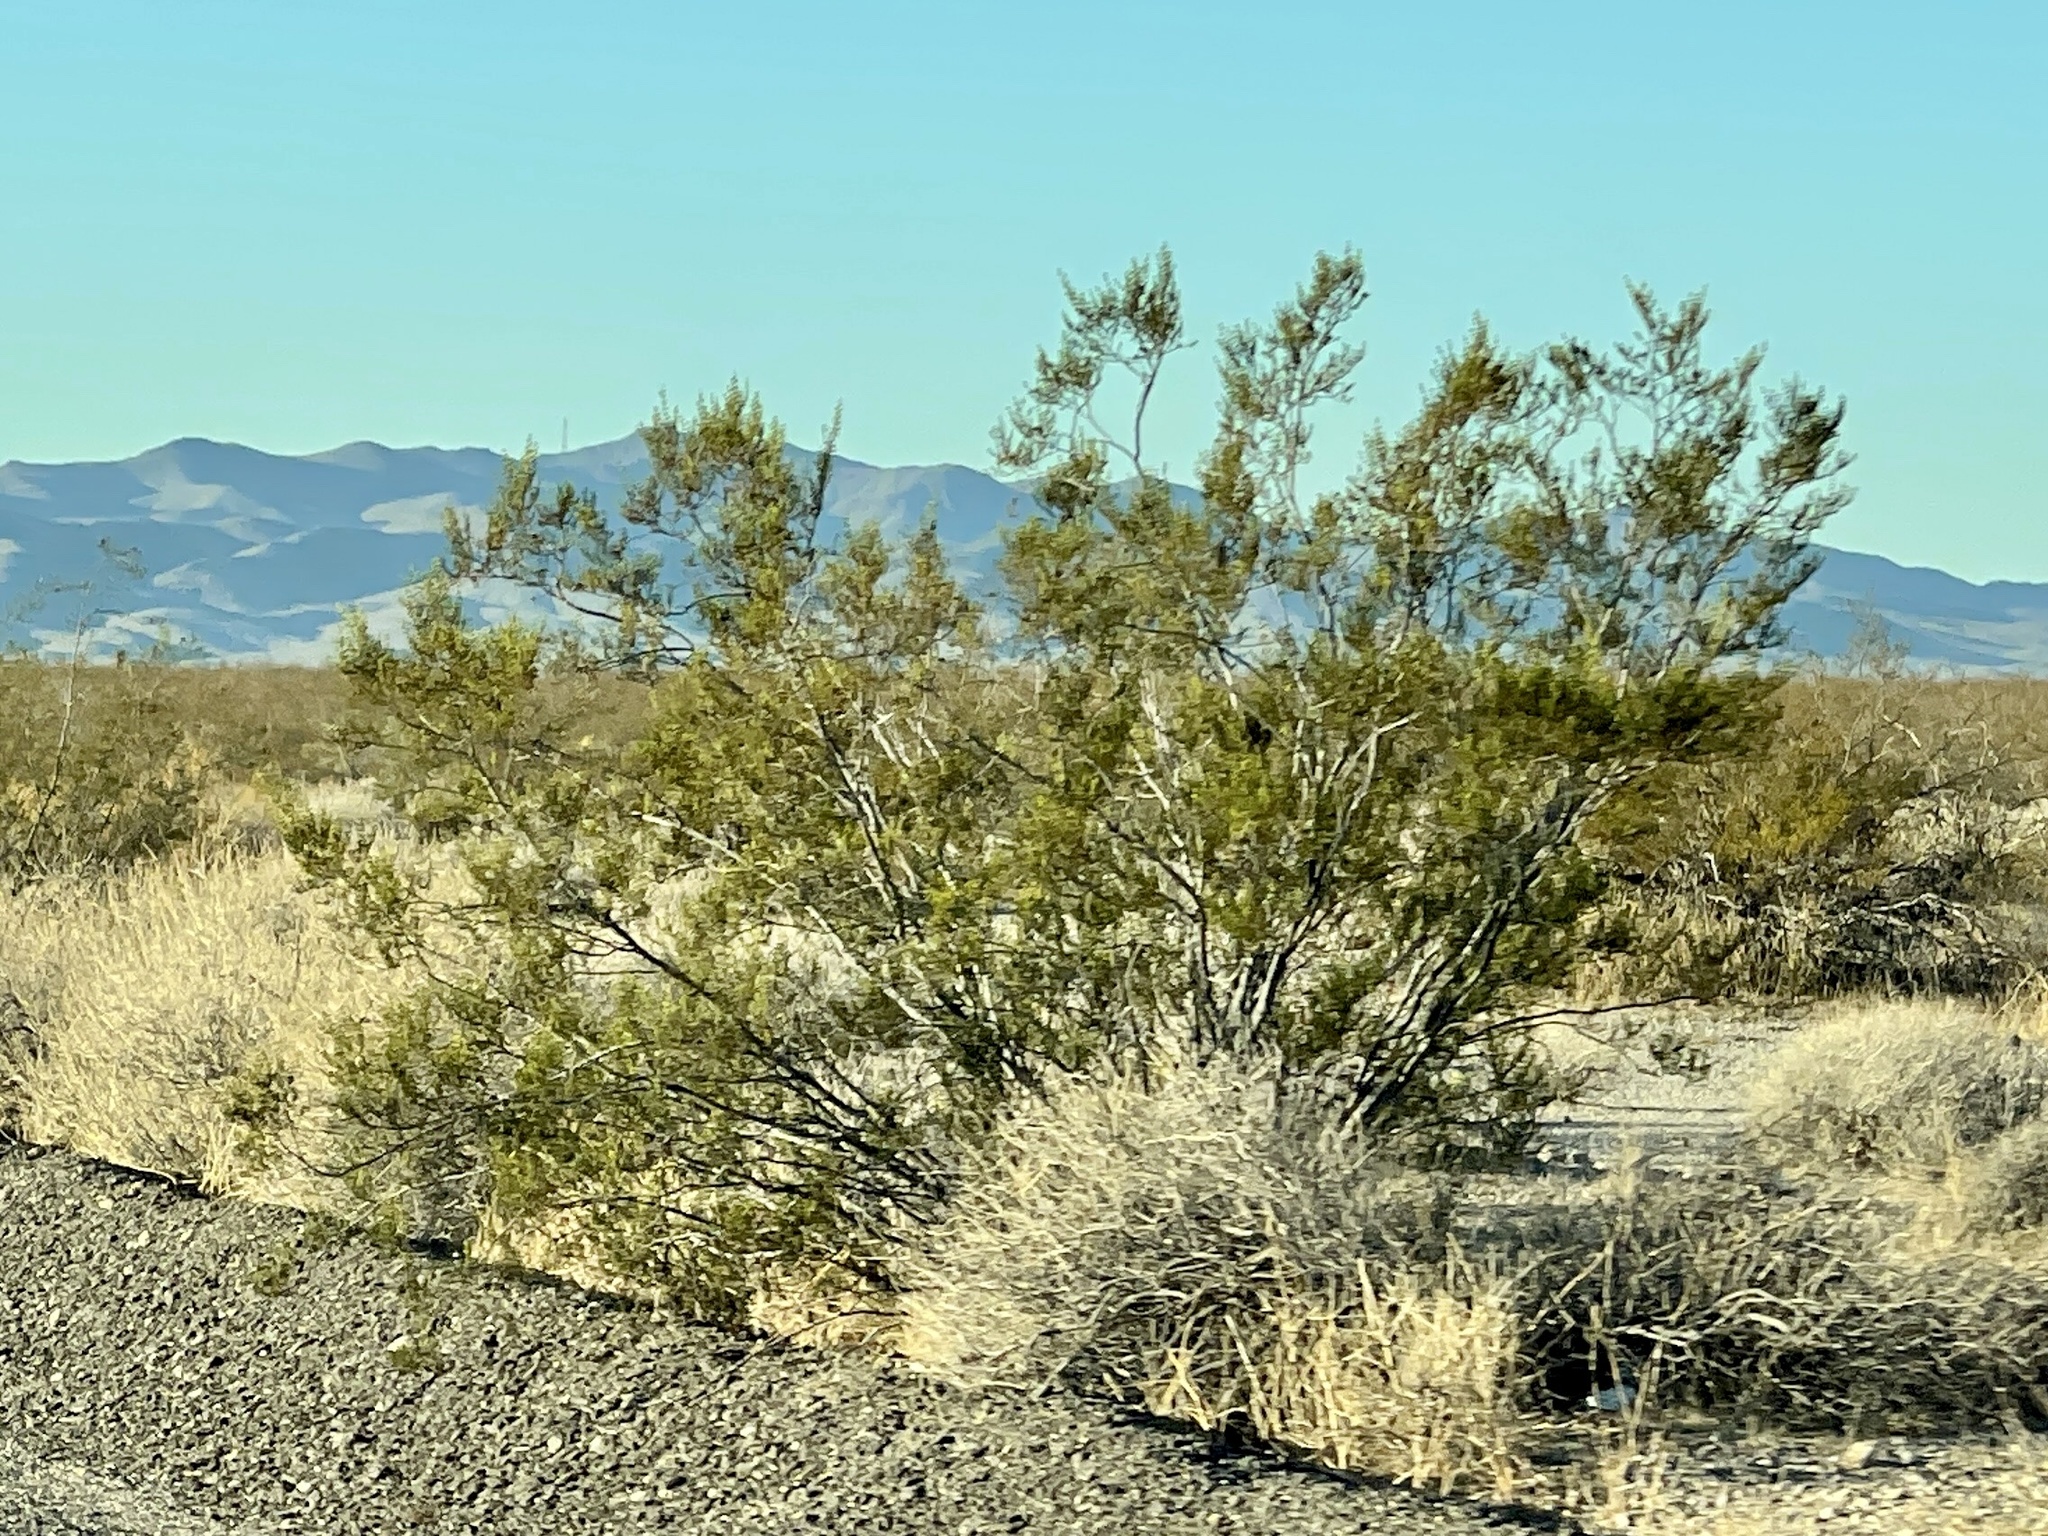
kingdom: Plantae
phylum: Tracheophyta
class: Magnoliopsida
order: Zygophyllales
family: Zygophyllaceae
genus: Larrea
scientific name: Larrea tridentata
